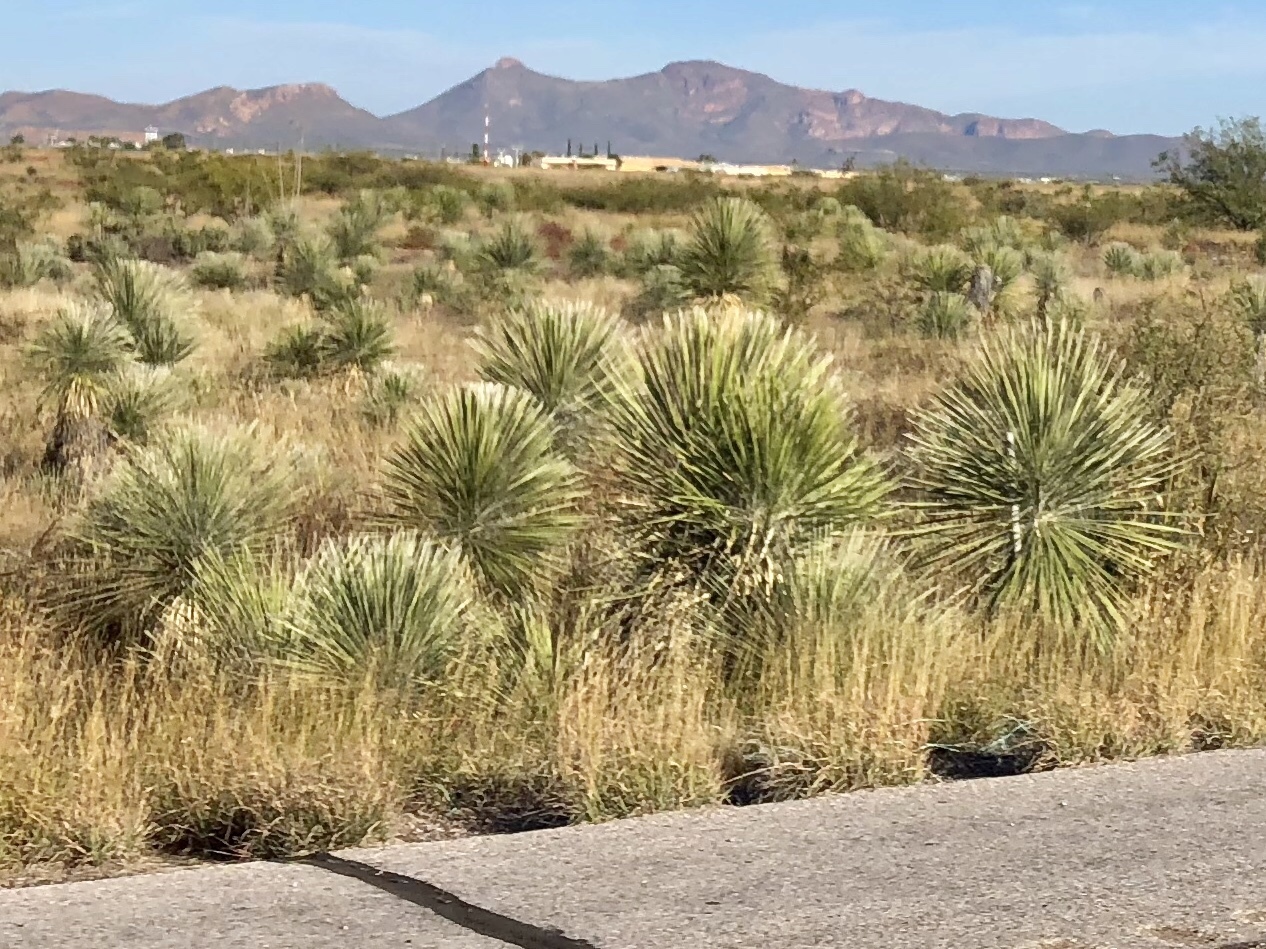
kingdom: Plantae
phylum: Tracheophyta
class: Liliopsida
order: Asparagales
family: Asparagaceae
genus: Yucca
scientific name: Yucca elata
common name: Palmella
